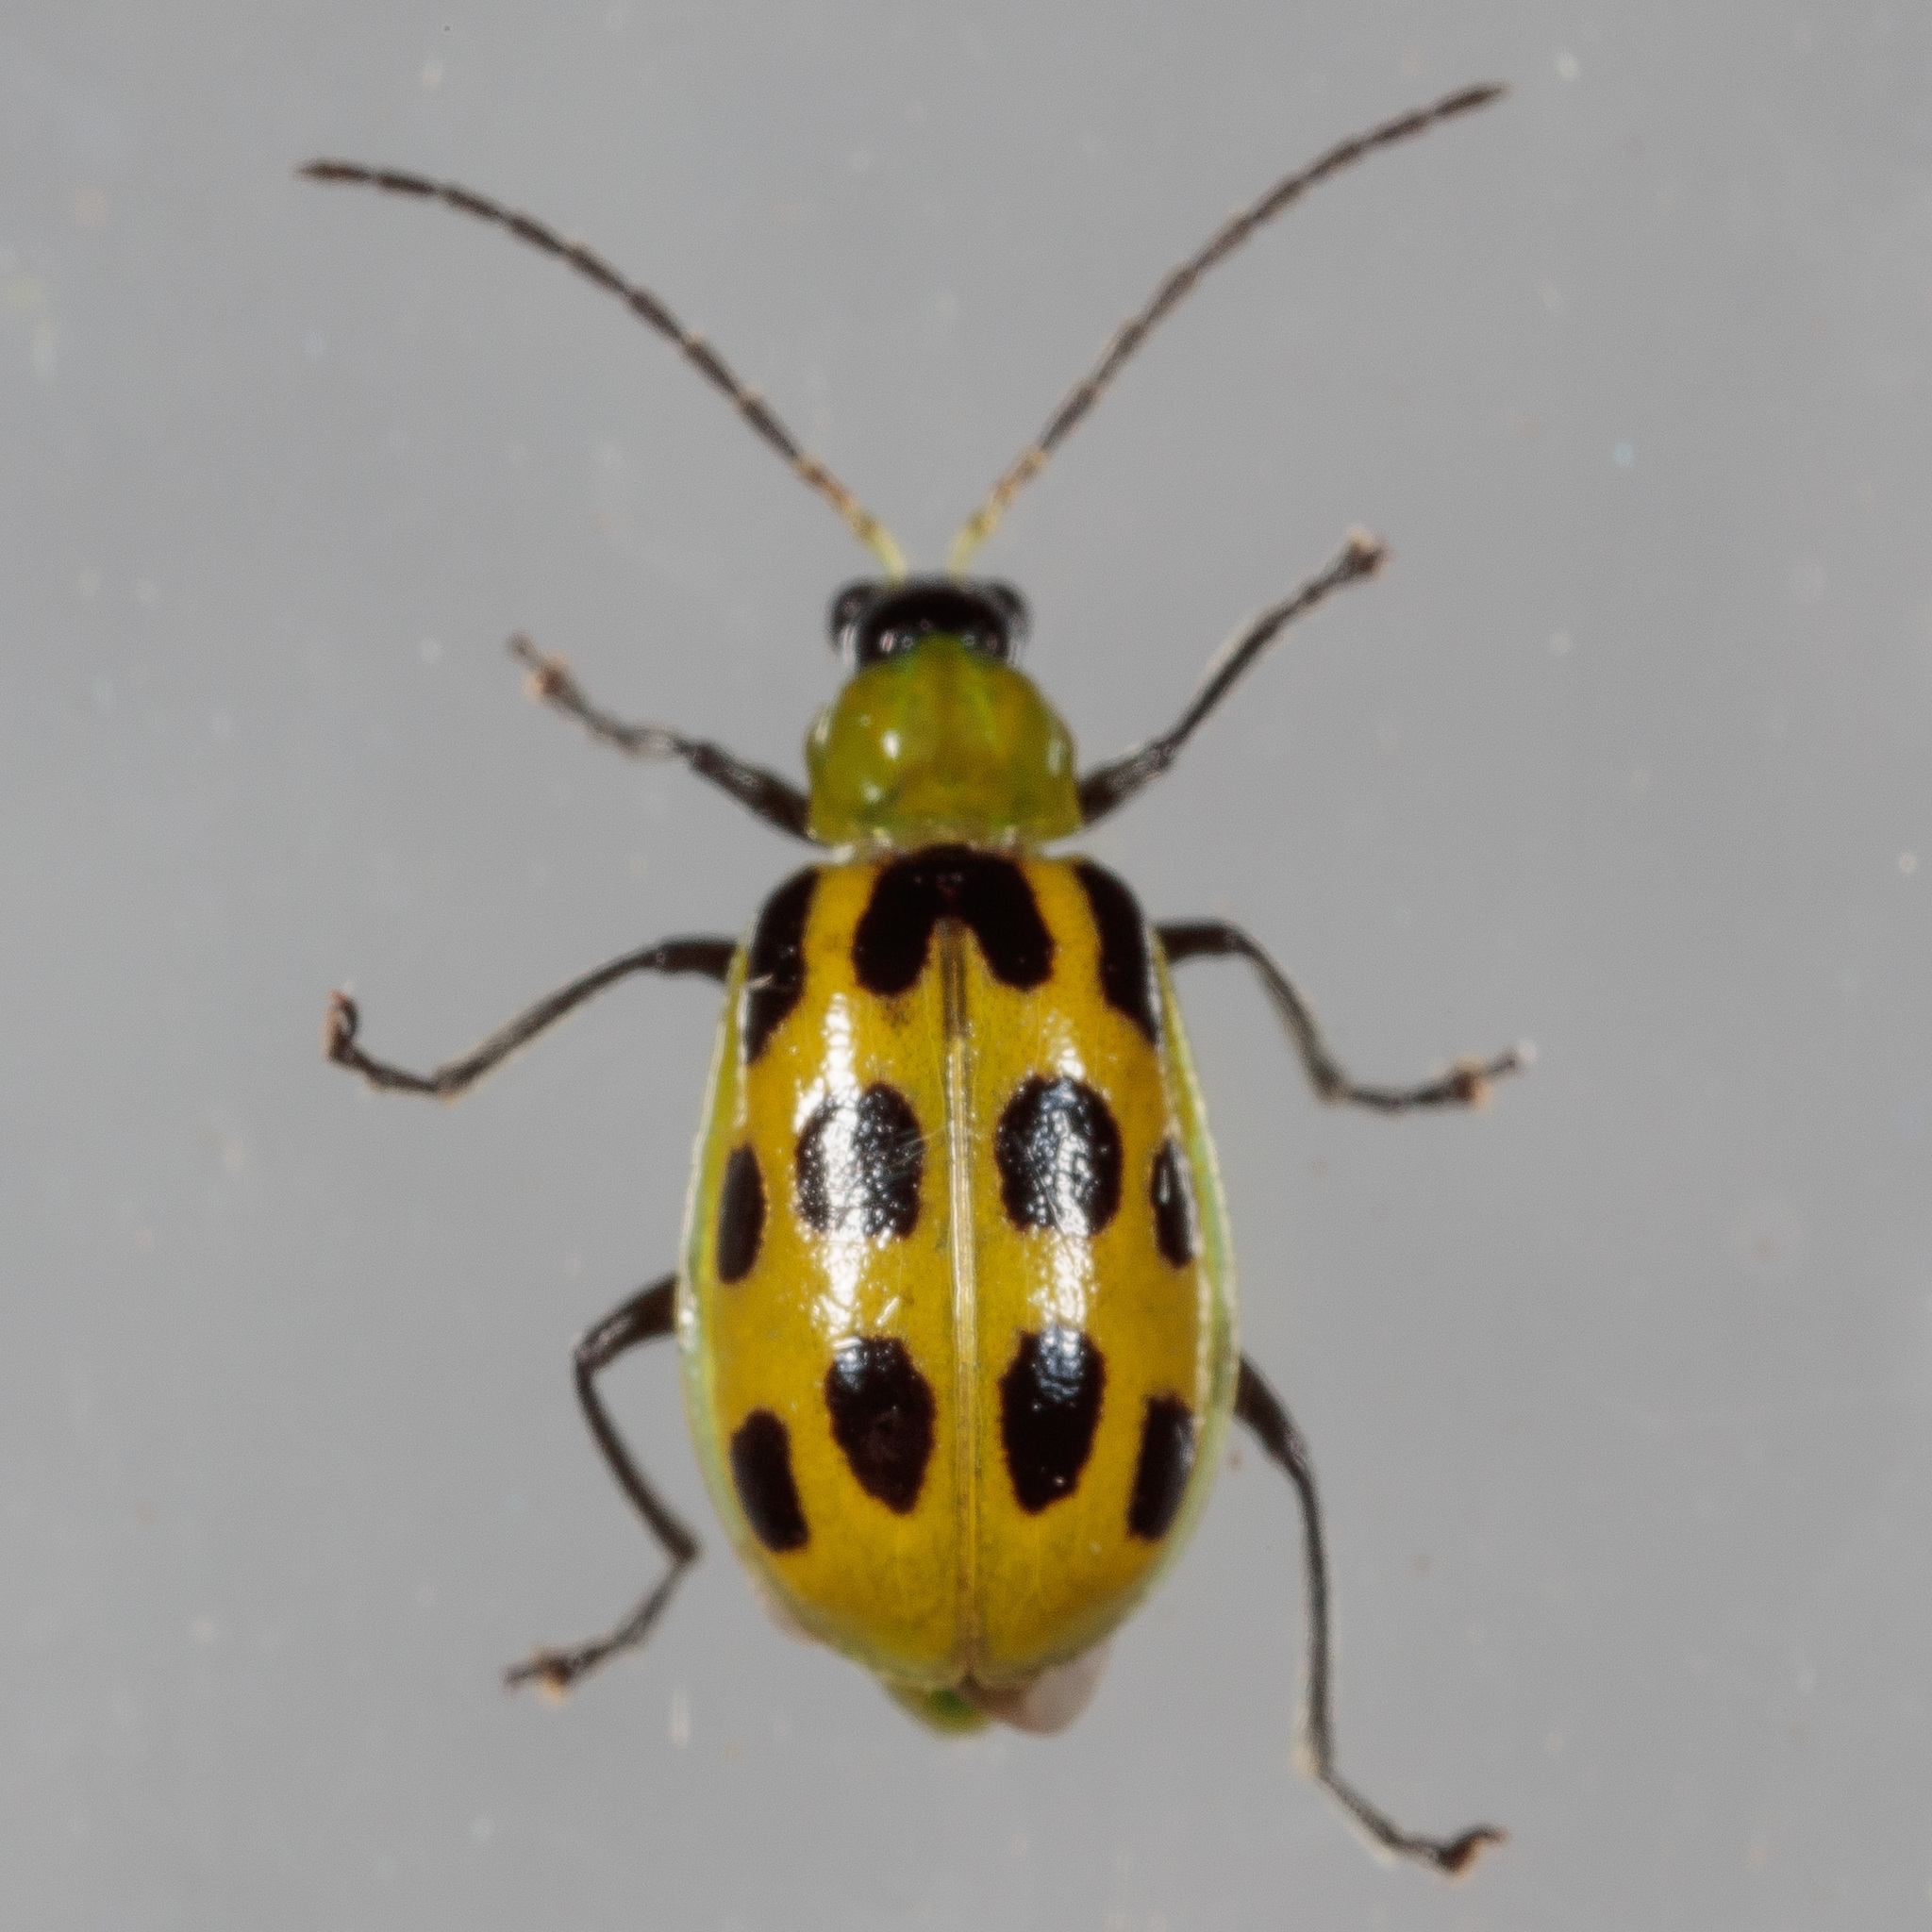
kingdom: Animalia
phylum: Arthropoda
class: Insecta
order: Coleoptera
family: Chrysomelidae
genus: Diabrotica
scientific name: Diabrotica undecimpunctata
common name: Spotted cucumber beetle
